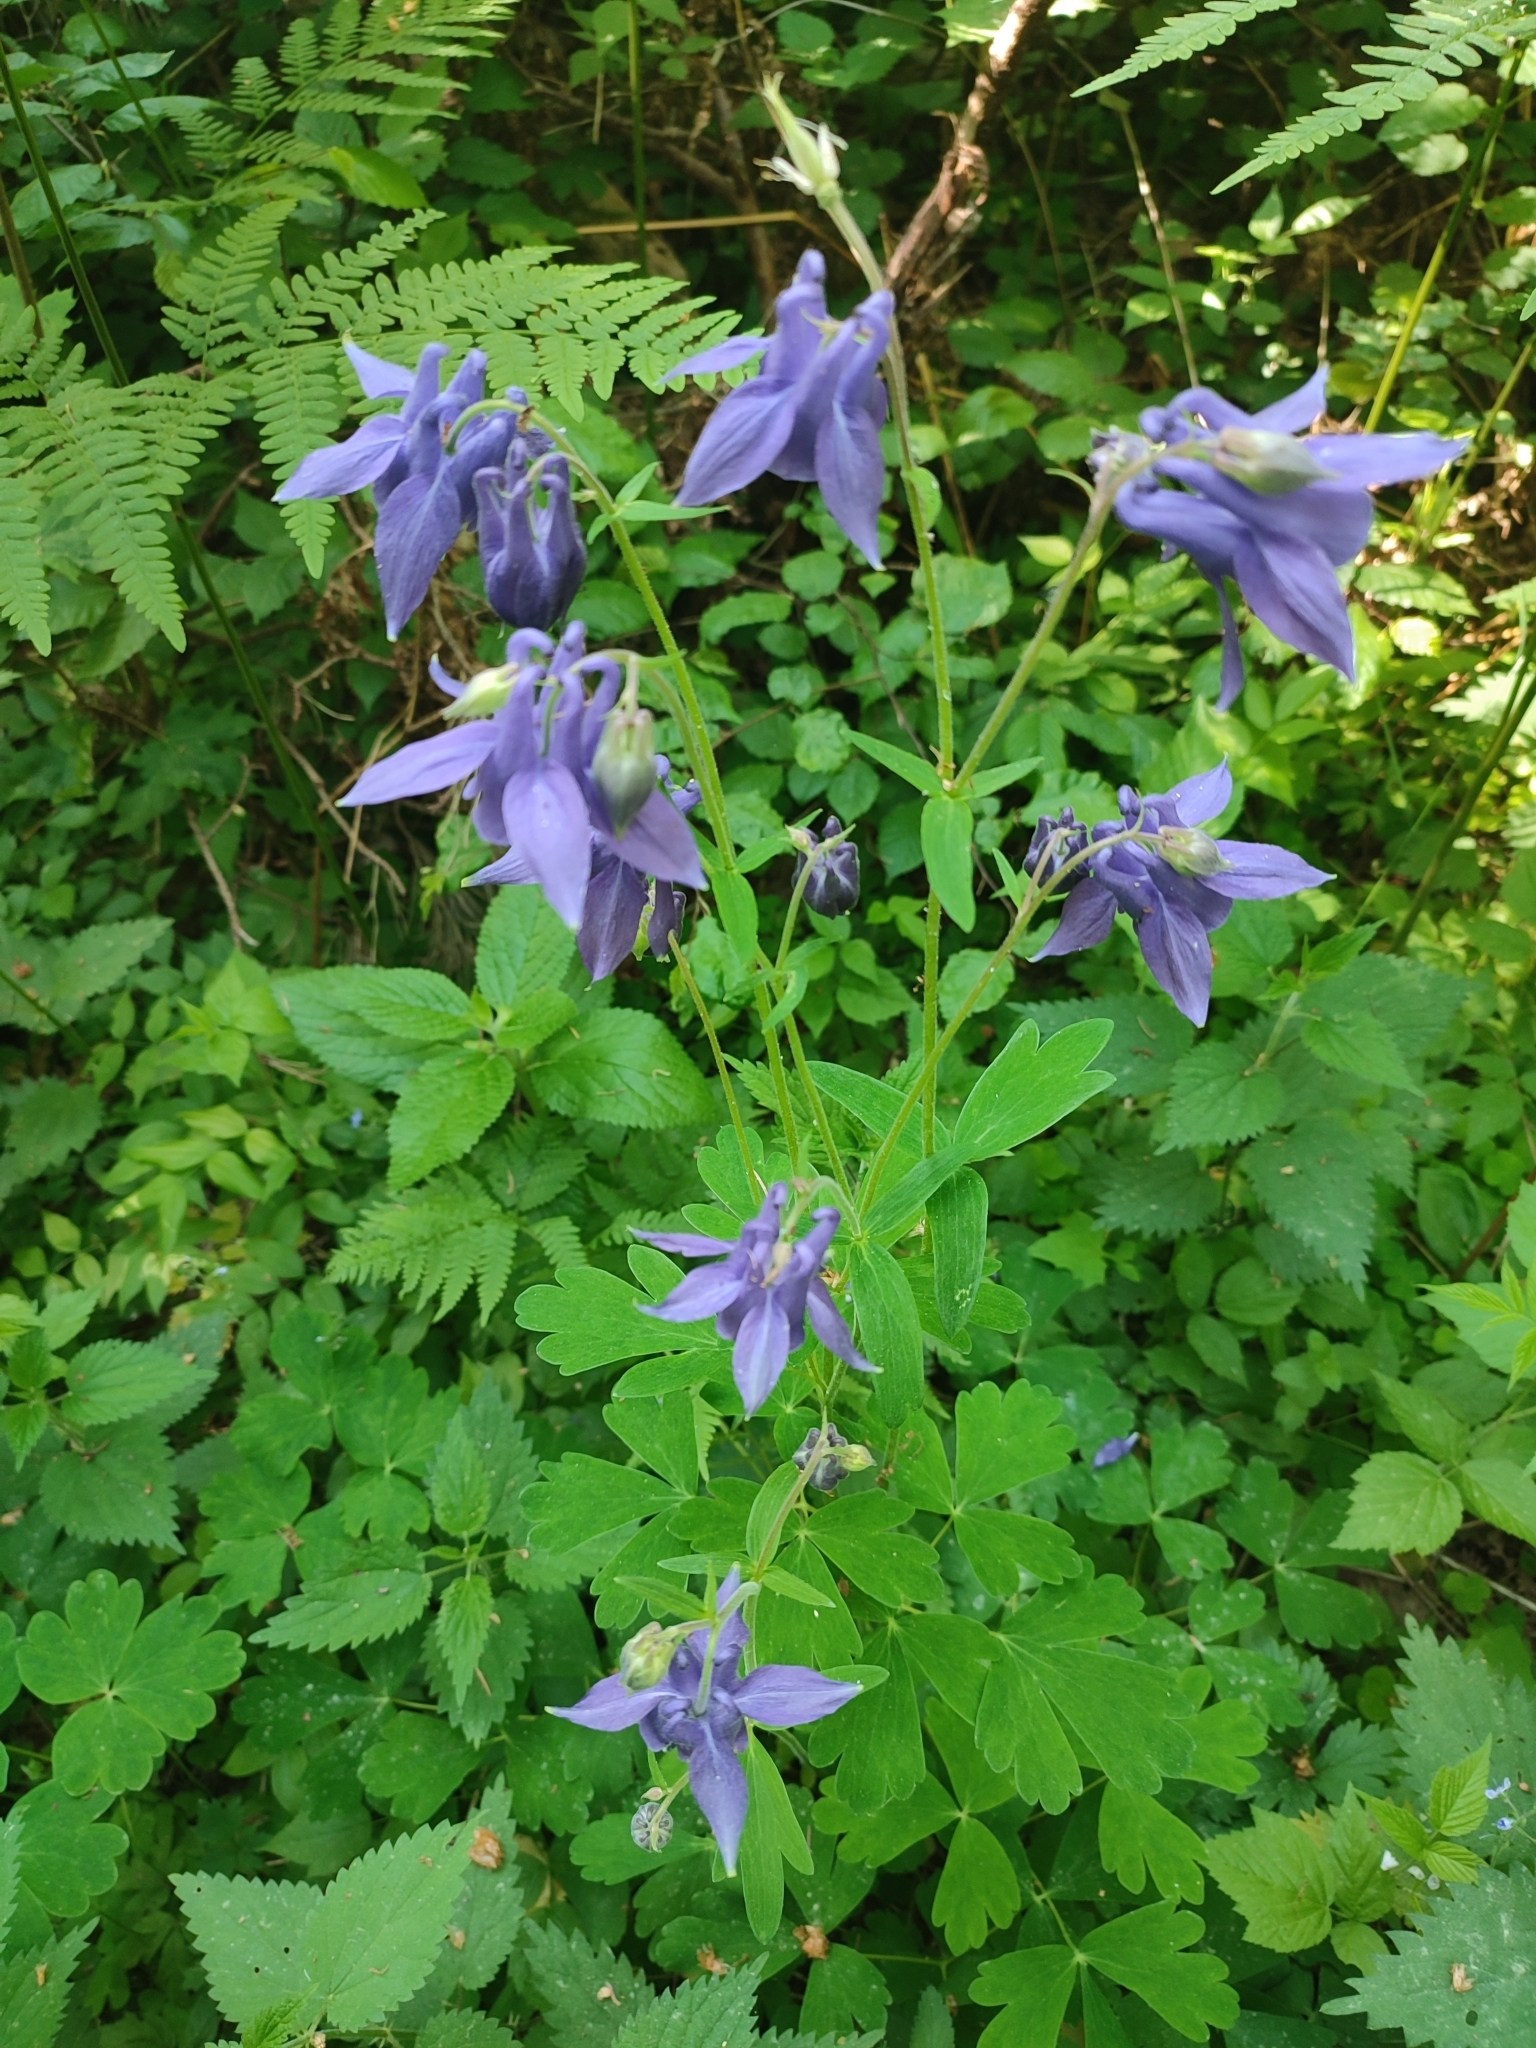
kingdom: Plantae
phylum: Tracheophyta
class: Magnoliopsida
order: Ranunculales
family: Ranunculaceae
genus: Aquilegia
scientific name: Aquilegia vulgaris
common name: Columbine
